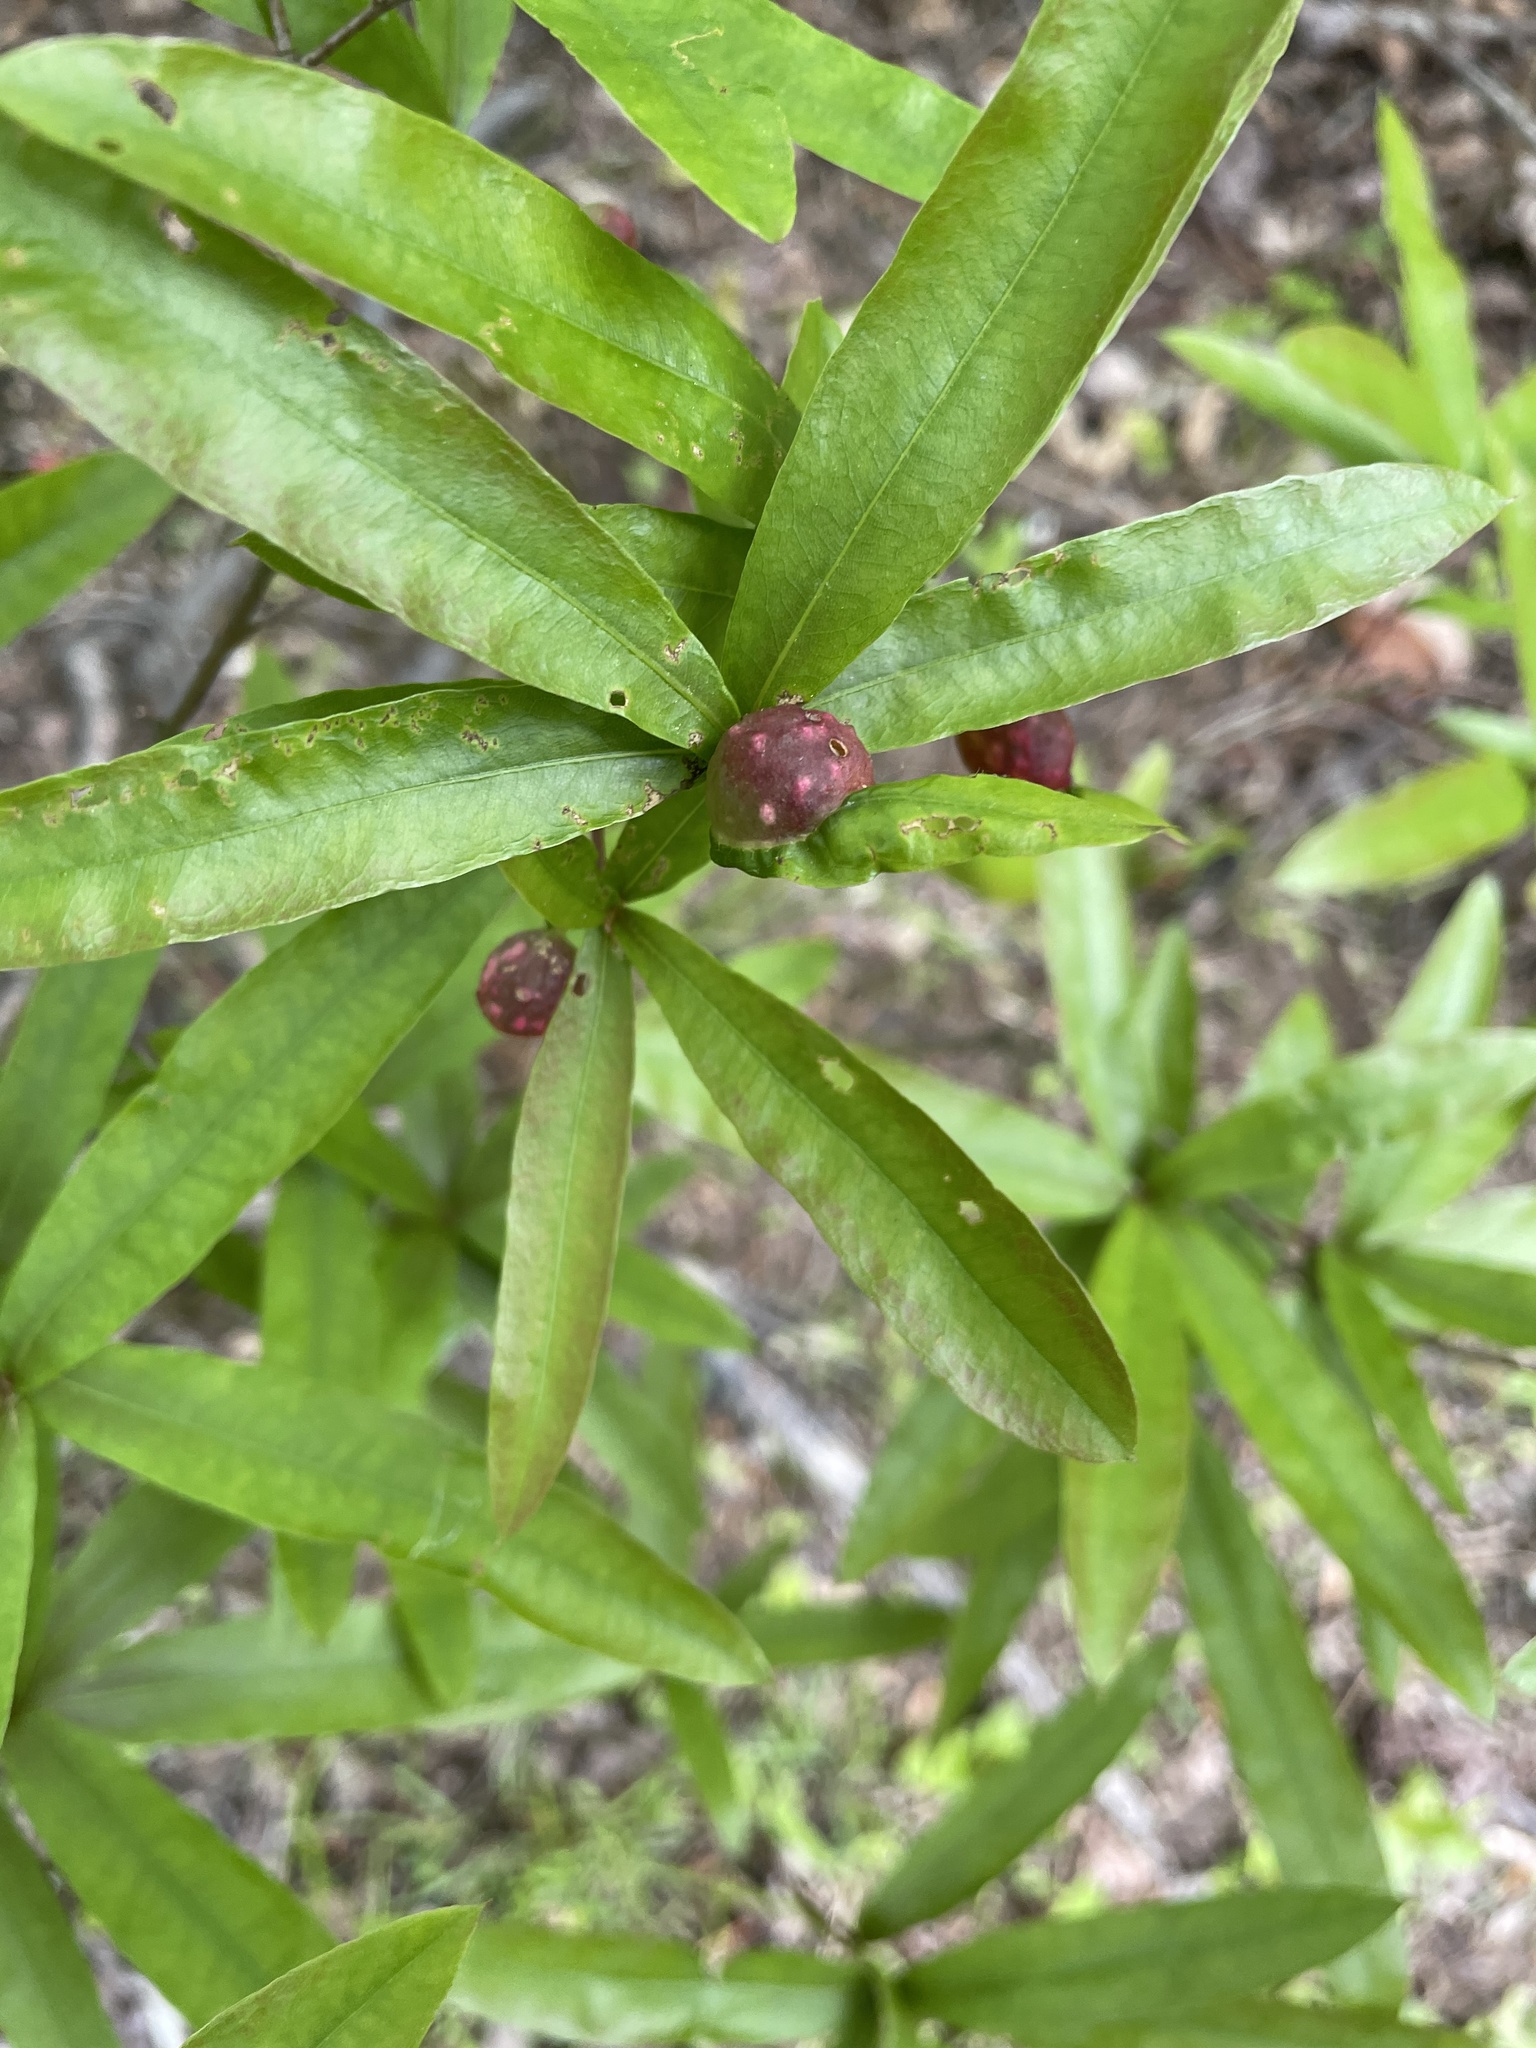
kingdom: Animalia
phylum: Arthropoda
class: Insecta
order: Hymenoptera
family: Cynipidae
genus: Dryocosmus
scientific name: Dryocosmus
